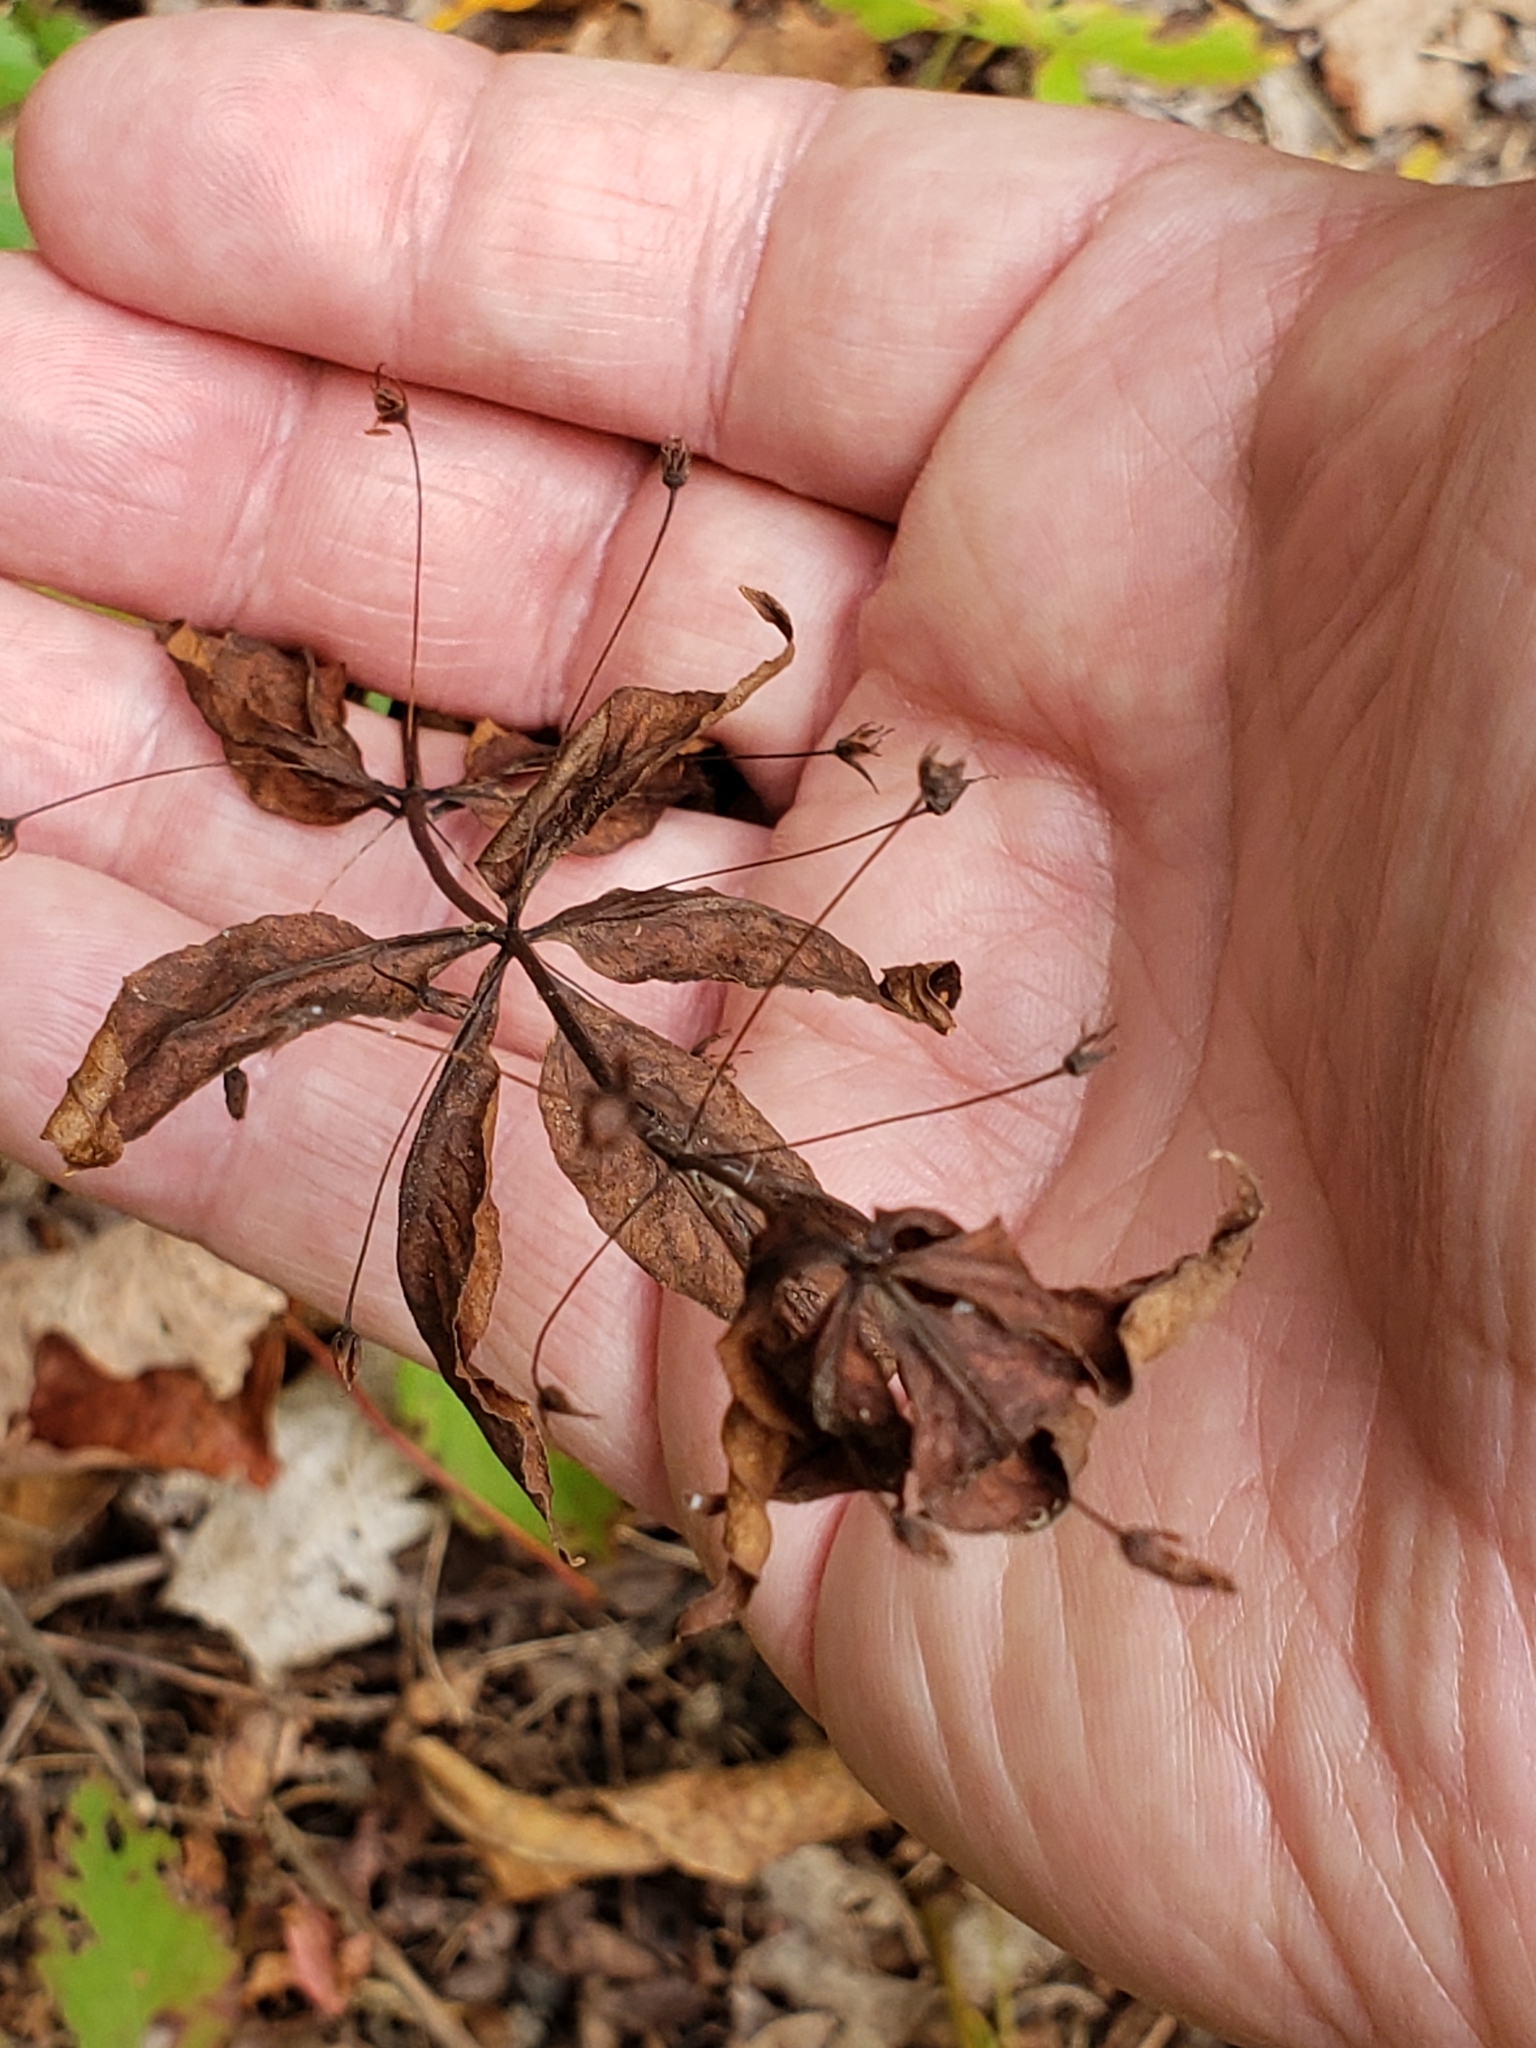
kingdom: Plantae
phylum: Tracheophyta
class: Magnoliopsida
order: Ericales
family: Primulaceae
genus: Lysimachia
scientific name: Lysimachia quadrifolia
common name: Whorled loosestrife
